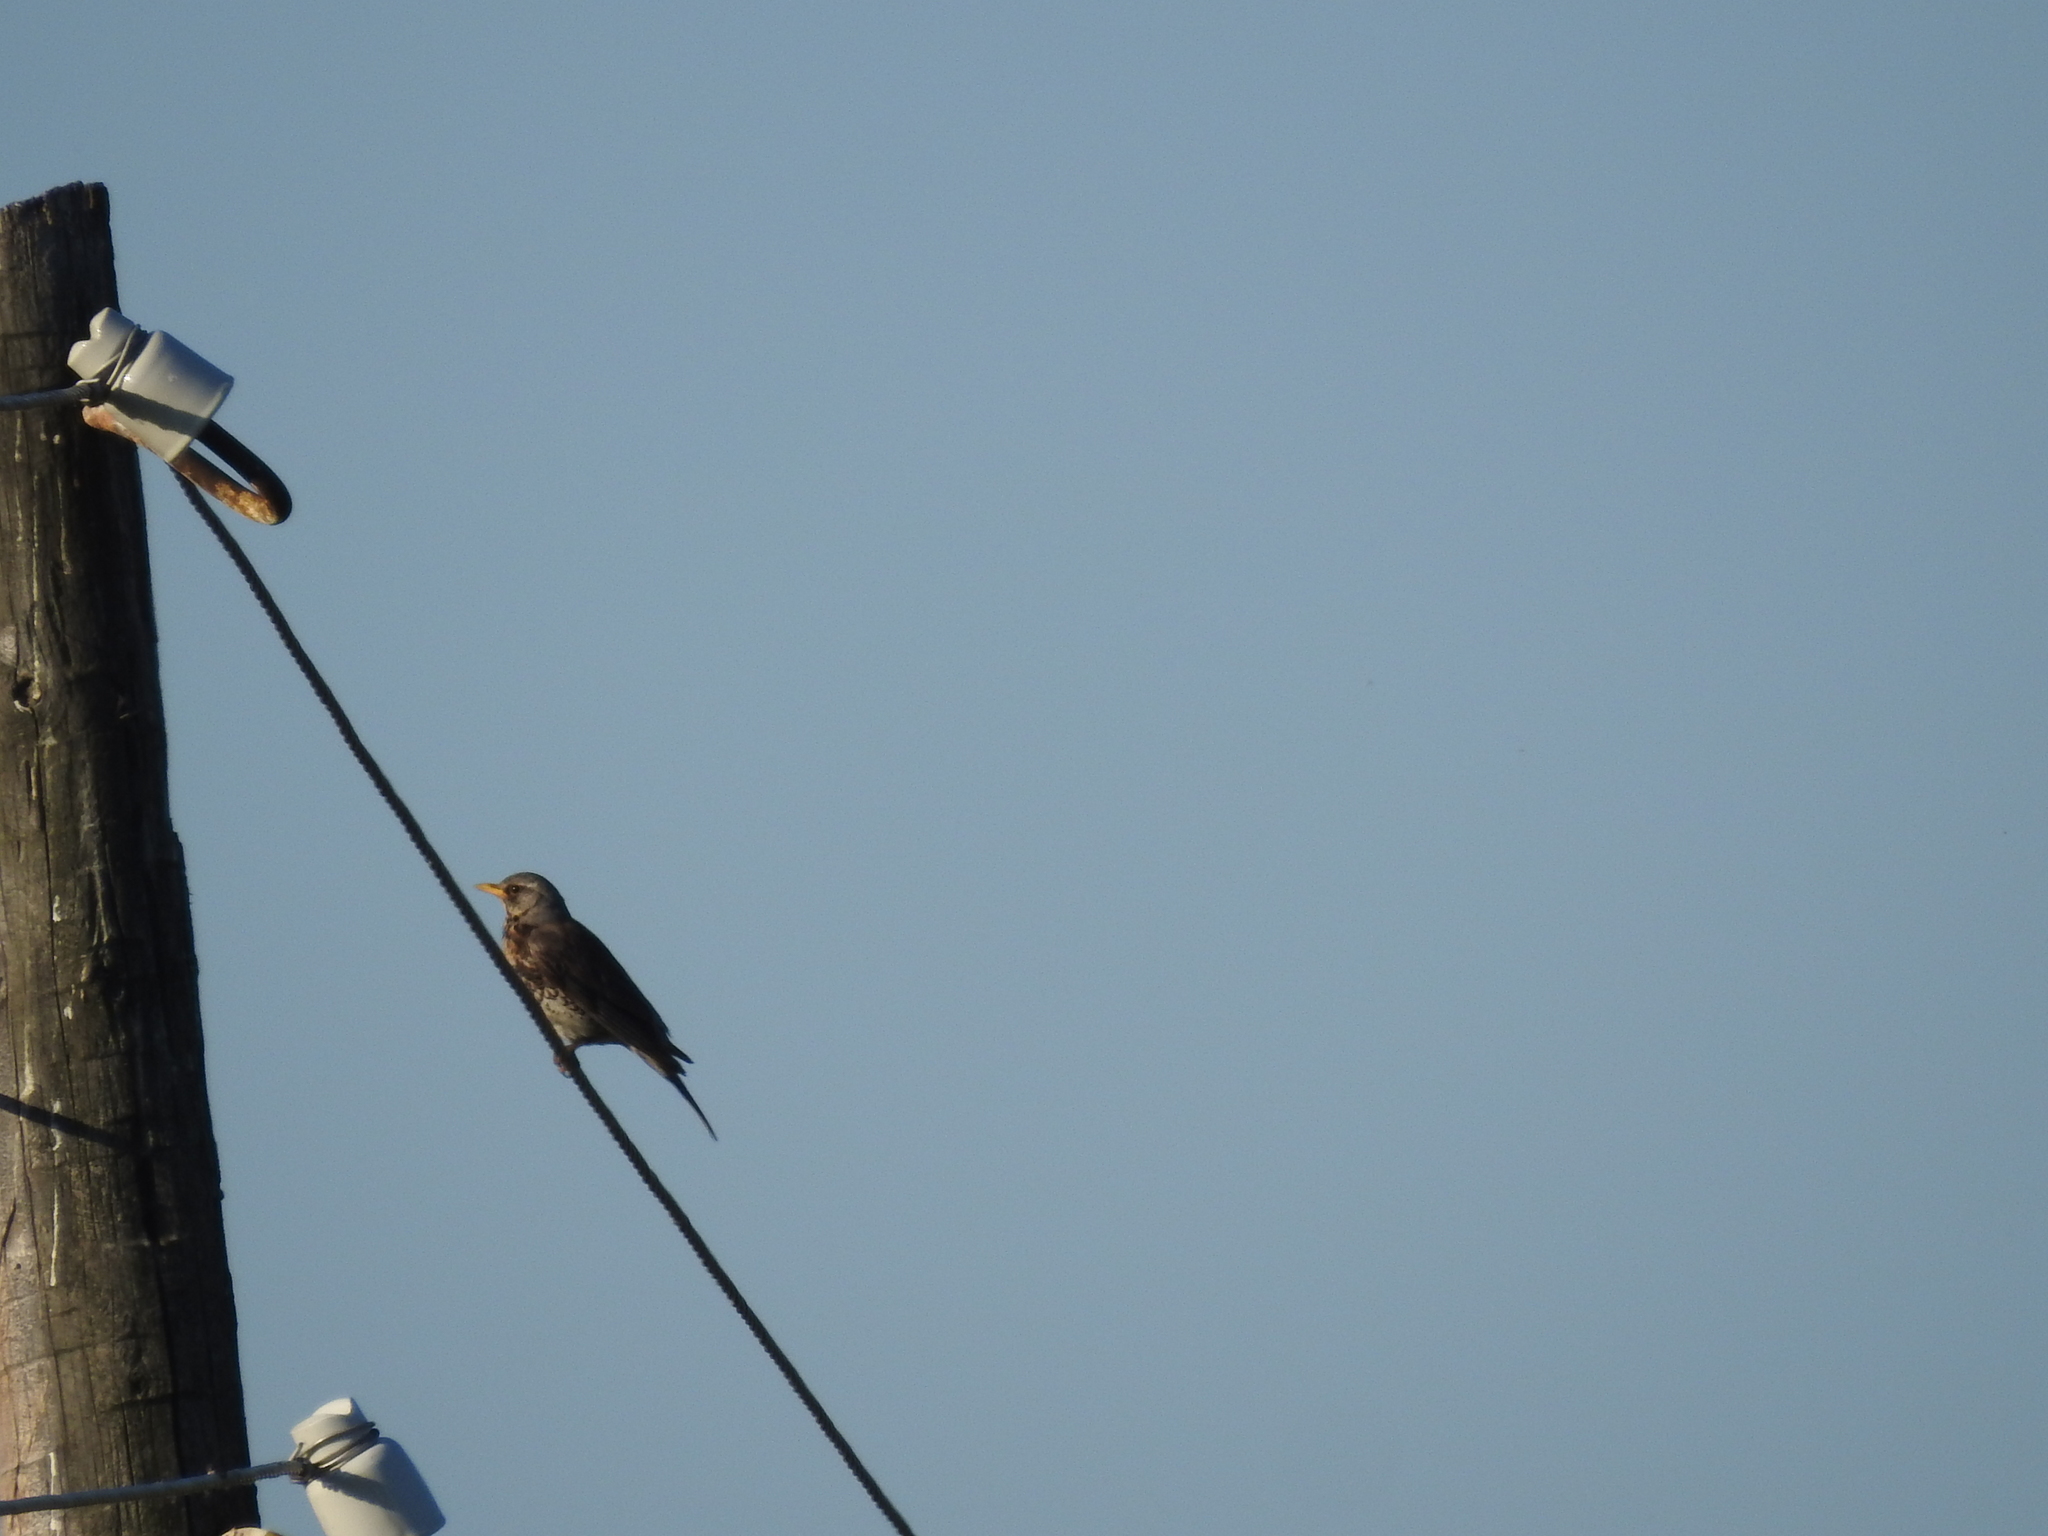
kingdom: Animalia
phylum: Chordata
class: Aves
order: Passeriformes
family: Turdidae
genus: Turdus
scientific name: Turdus pilaris
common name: Fieldfare
